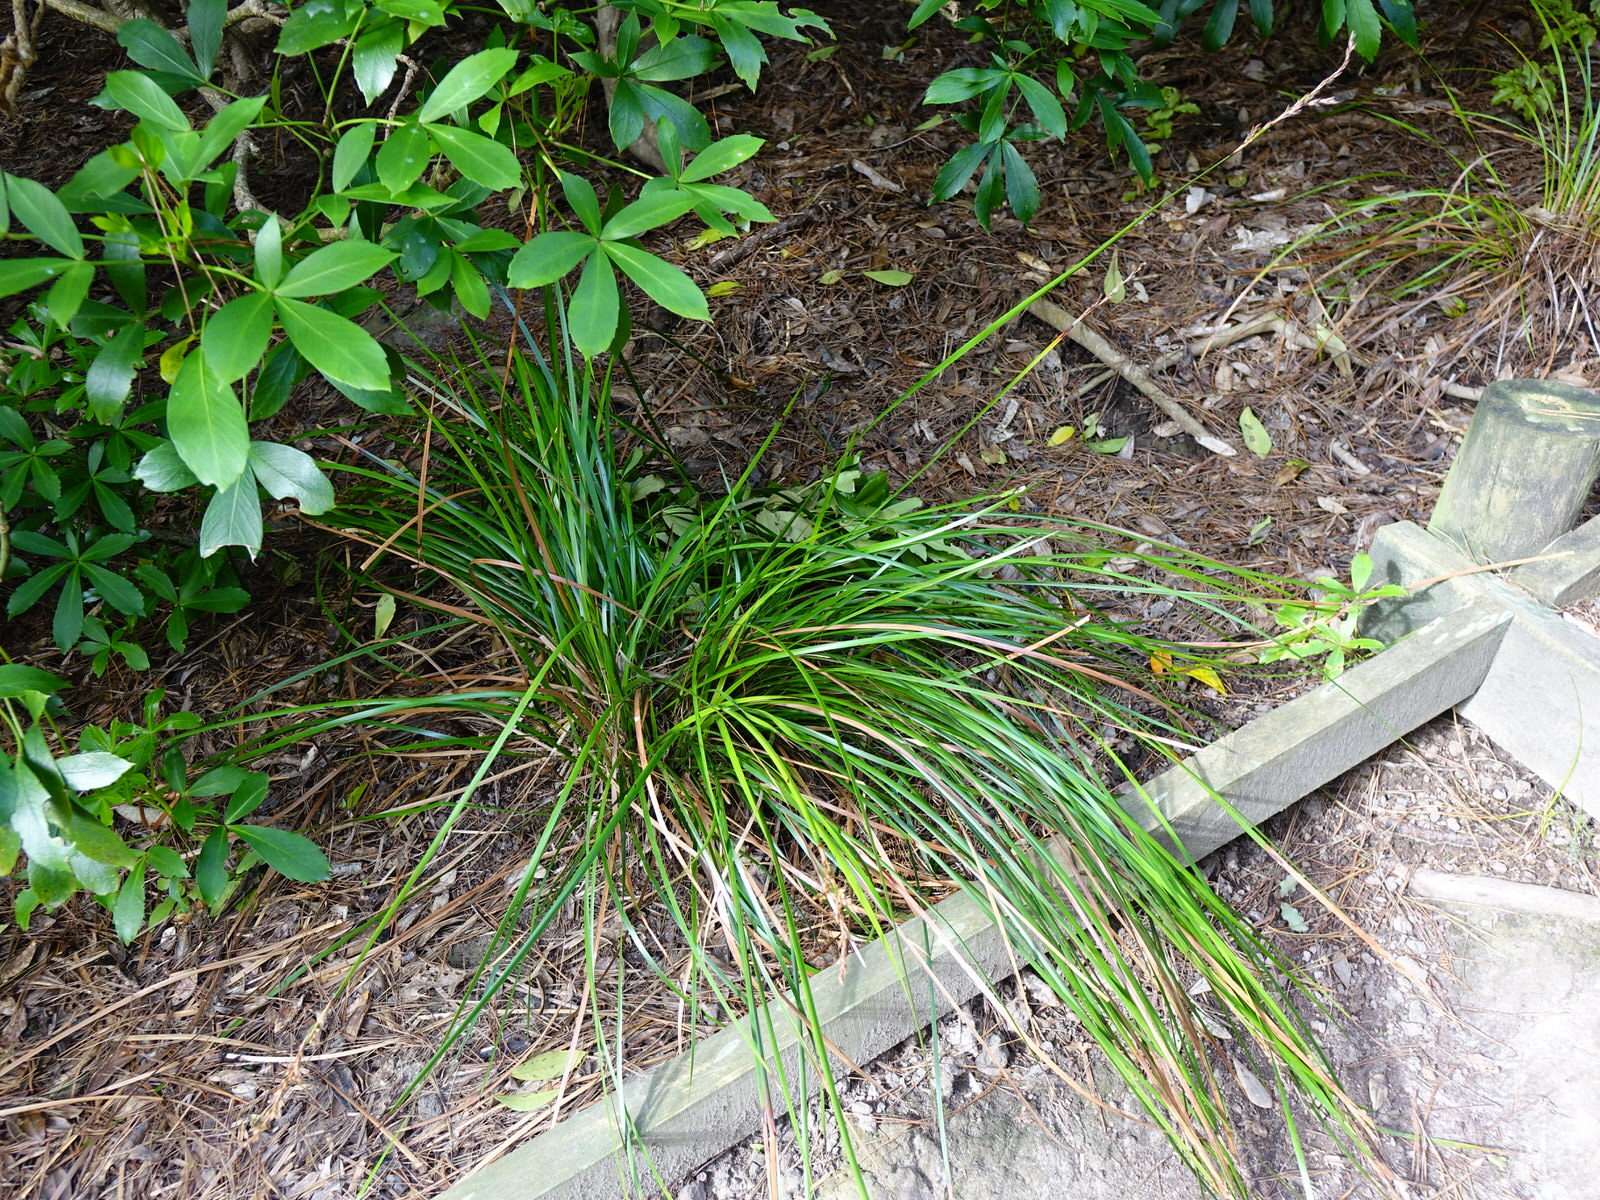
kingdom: Plantae
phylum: Tracheophyta
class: Liliopsida
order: Poales
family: Cyperaceae
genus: Lepidosperma
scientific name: Lepidosperma laterale
